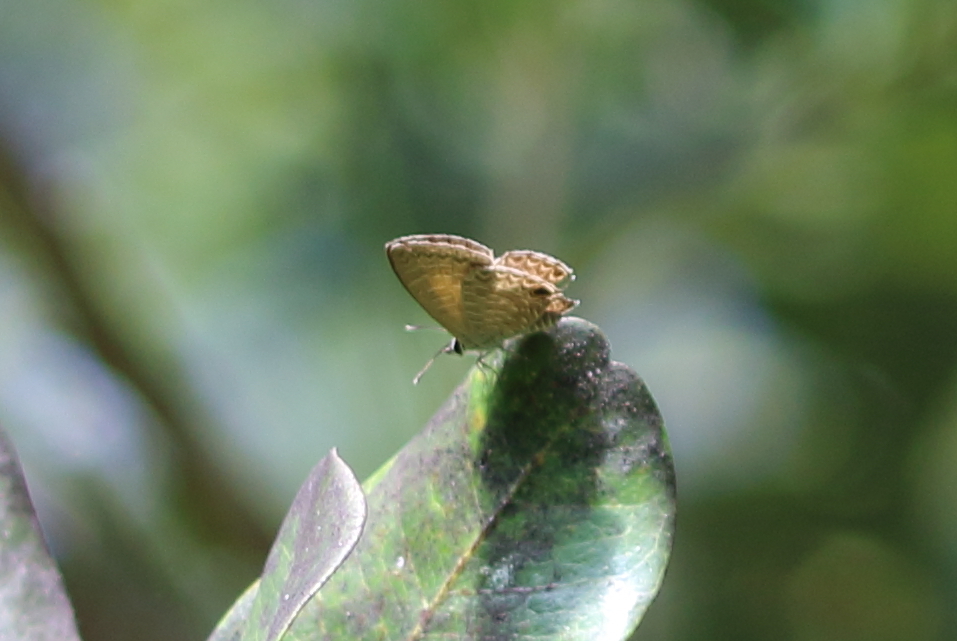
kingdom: Animalia
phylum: Arthropoda
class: Insecta
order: Lepidoptera
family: Lycaenidae
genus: Nacaduba
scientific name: Nacaduba berenice
